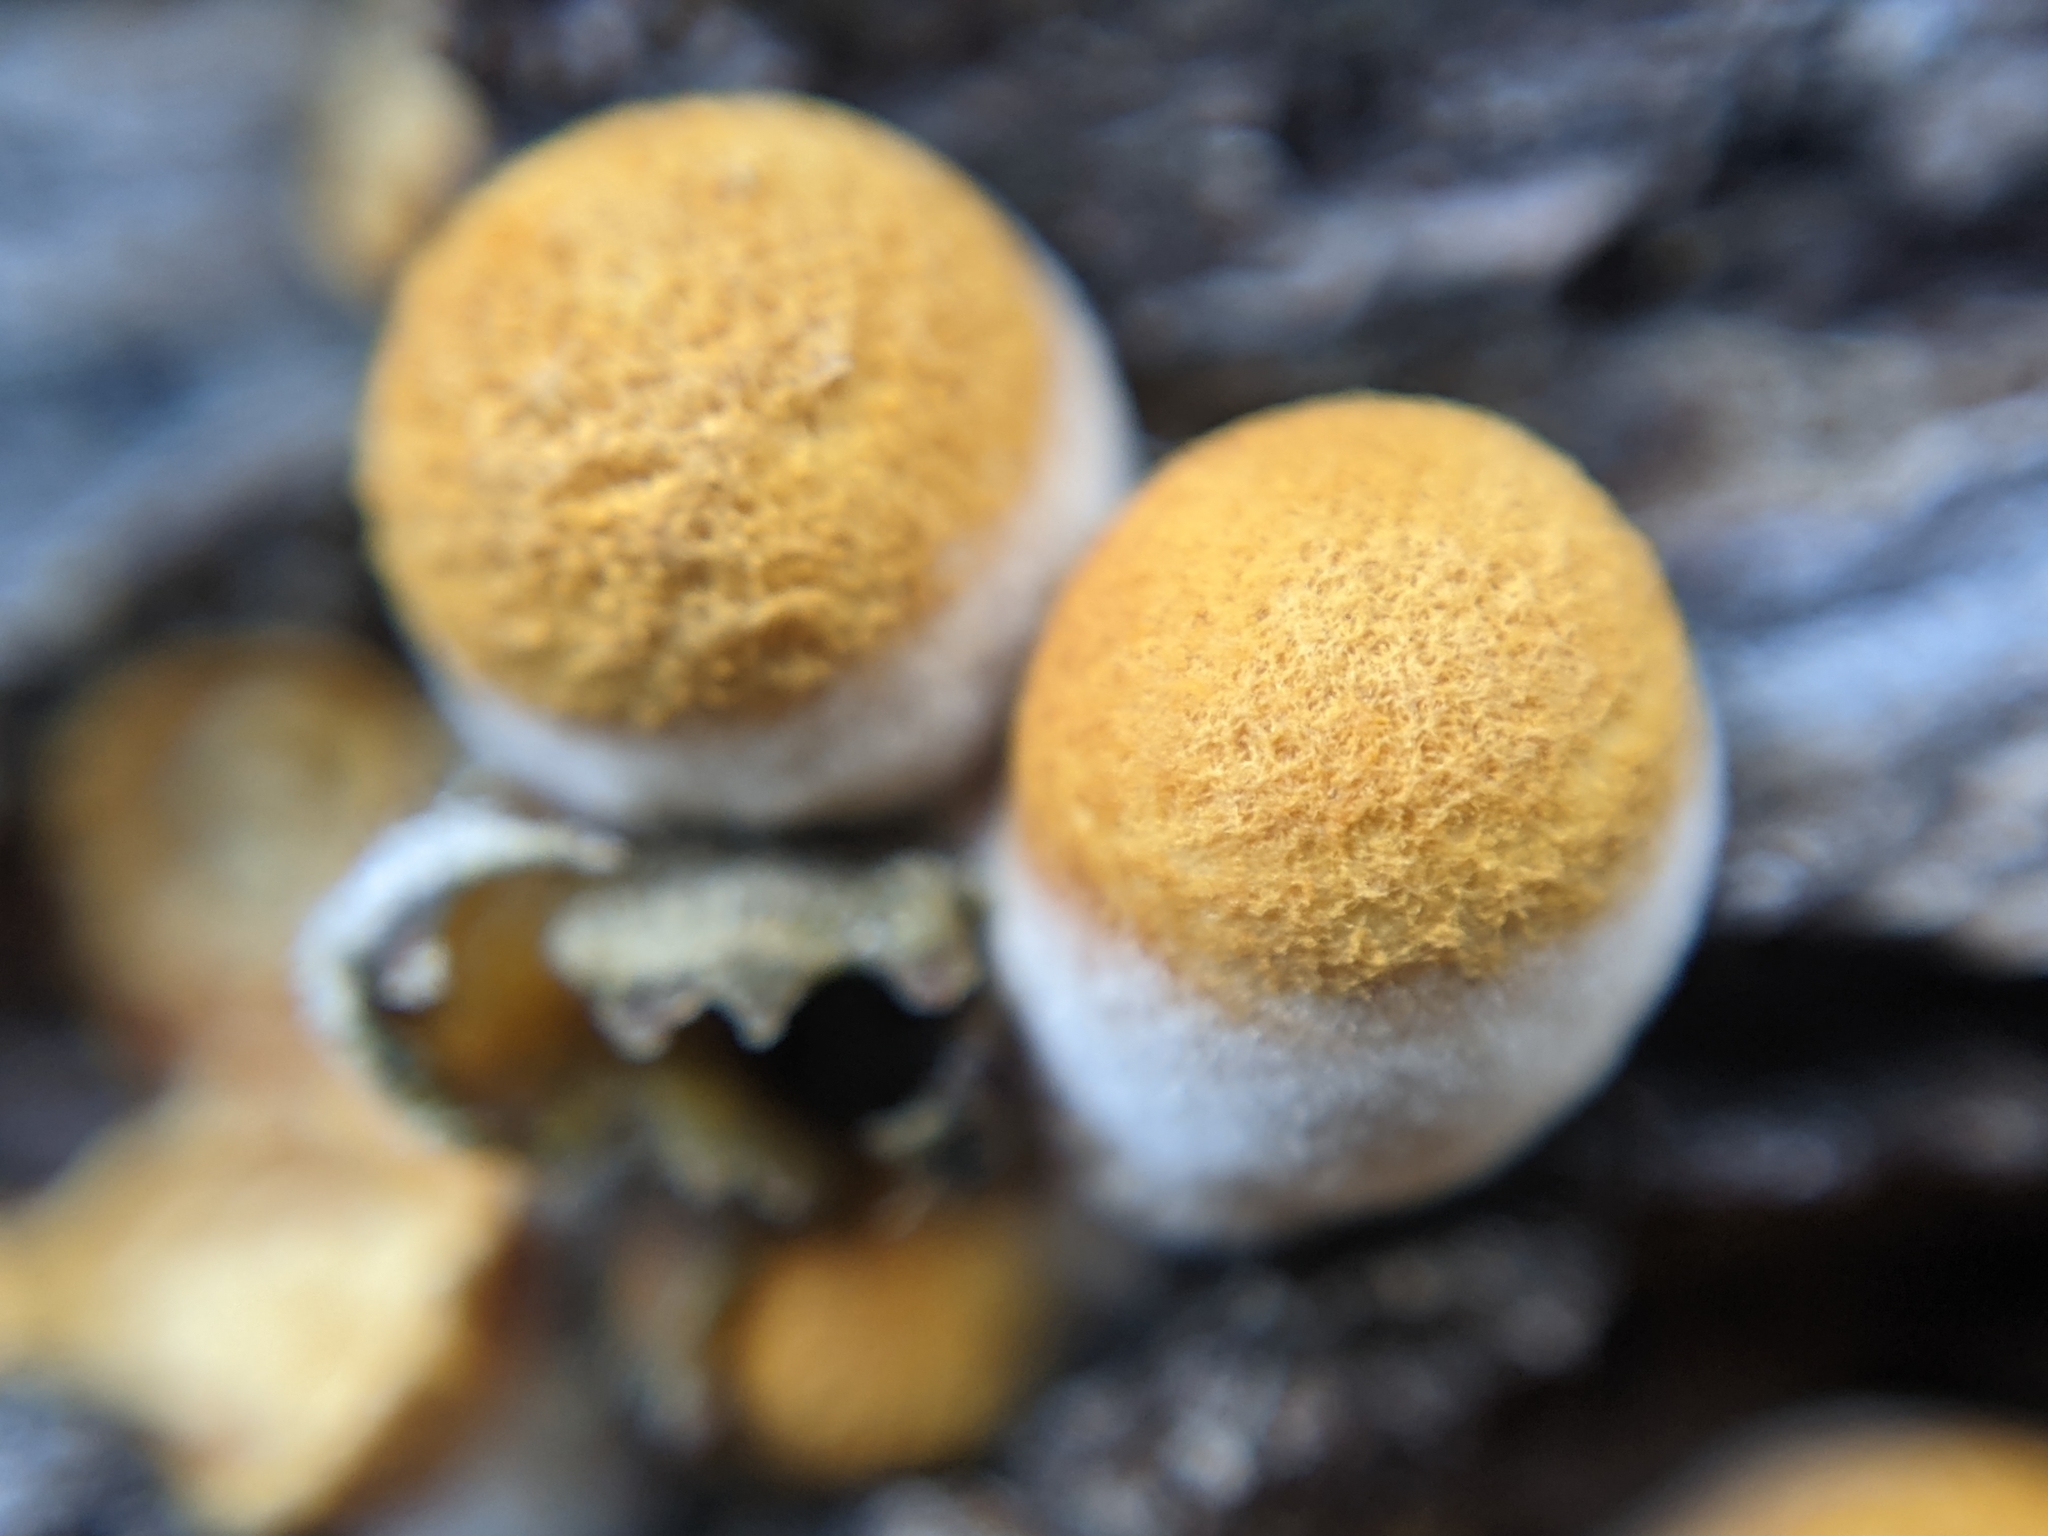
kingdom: Fungi
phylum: Basidiomycota
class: Agaricomycetes
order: Agaricales
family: Nidulariaceae
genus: Crucibulum
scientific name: Crucibulum laeve
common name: Common bird's nest
